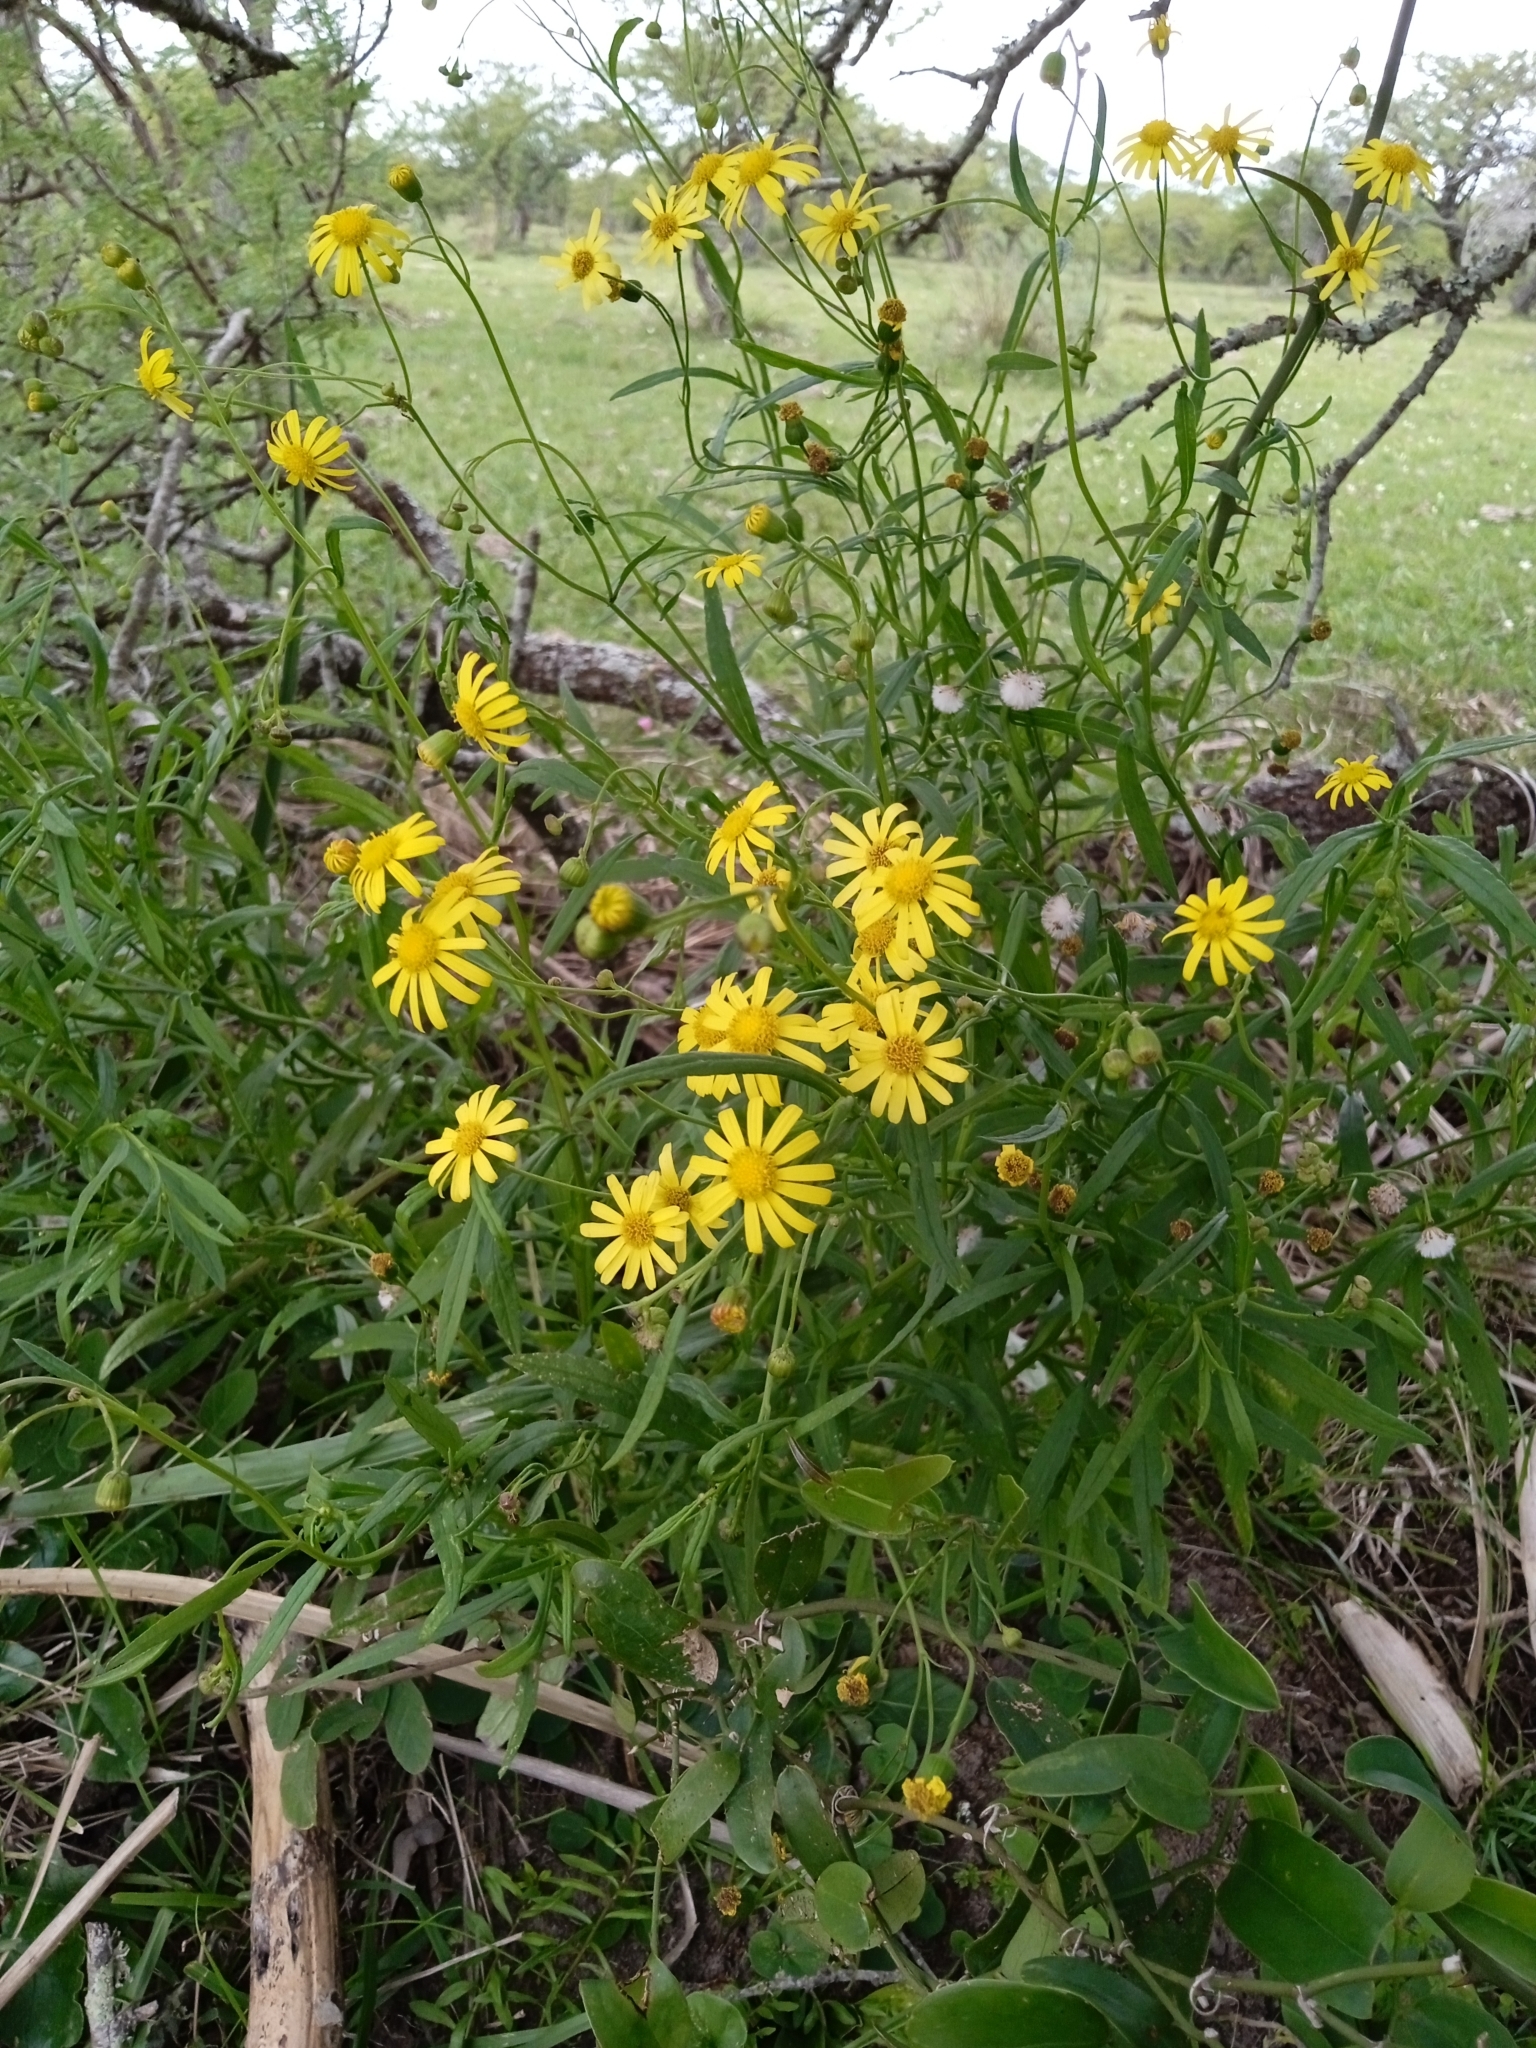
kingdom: Plantae
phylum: Tracheophyta
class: Magnoliopsida
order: Asterales
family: Asteraceae
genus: Senecio
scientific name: Senecio madagascariensis
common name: Madagascar ragwort
